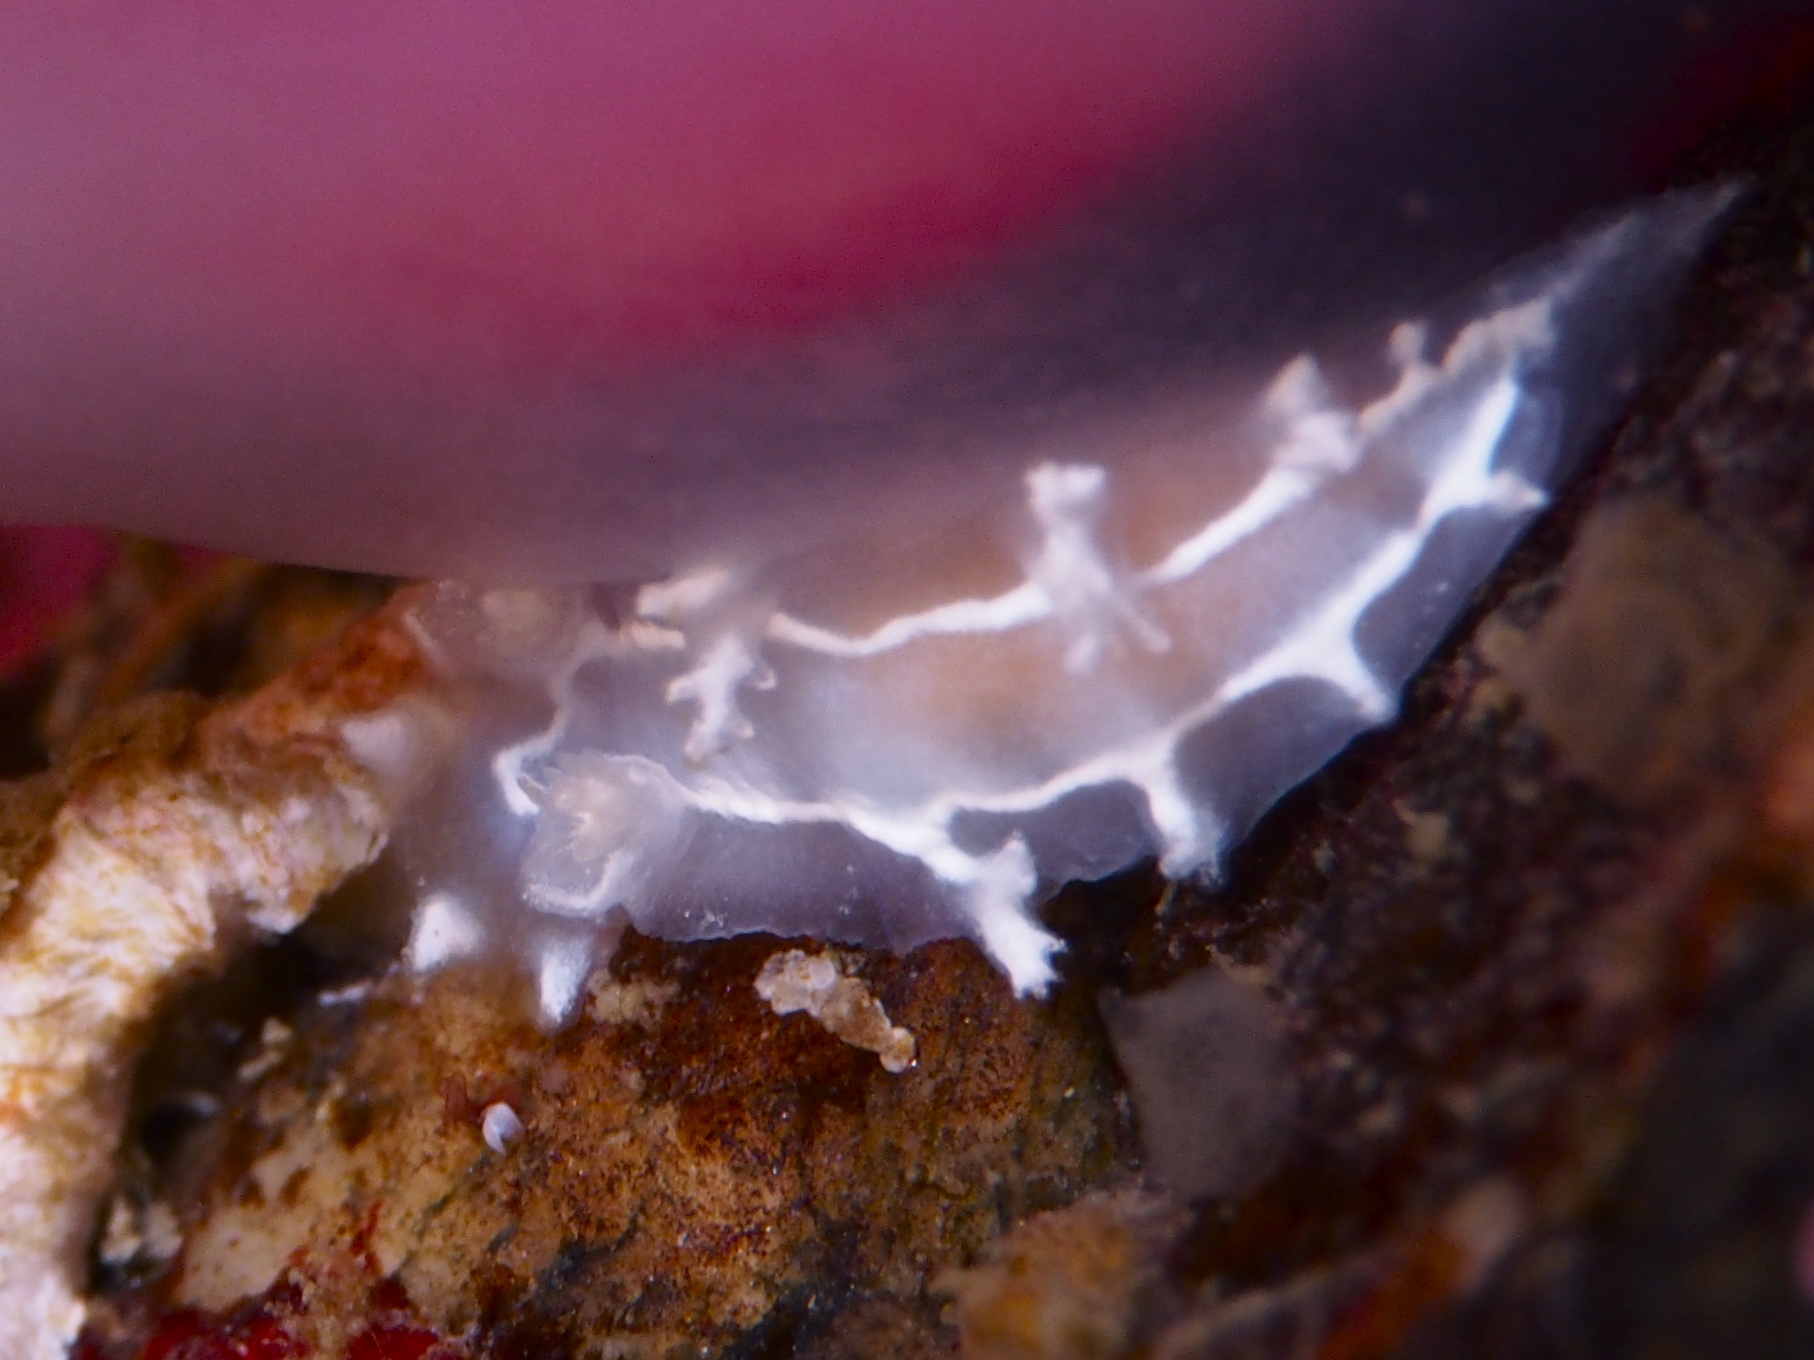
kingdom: Animalia
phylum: Mollusca
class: Gastropoda
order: Nudibranchia
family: Tritoniidae
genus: Duvaucelia
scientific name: Duvaucelia lineata
